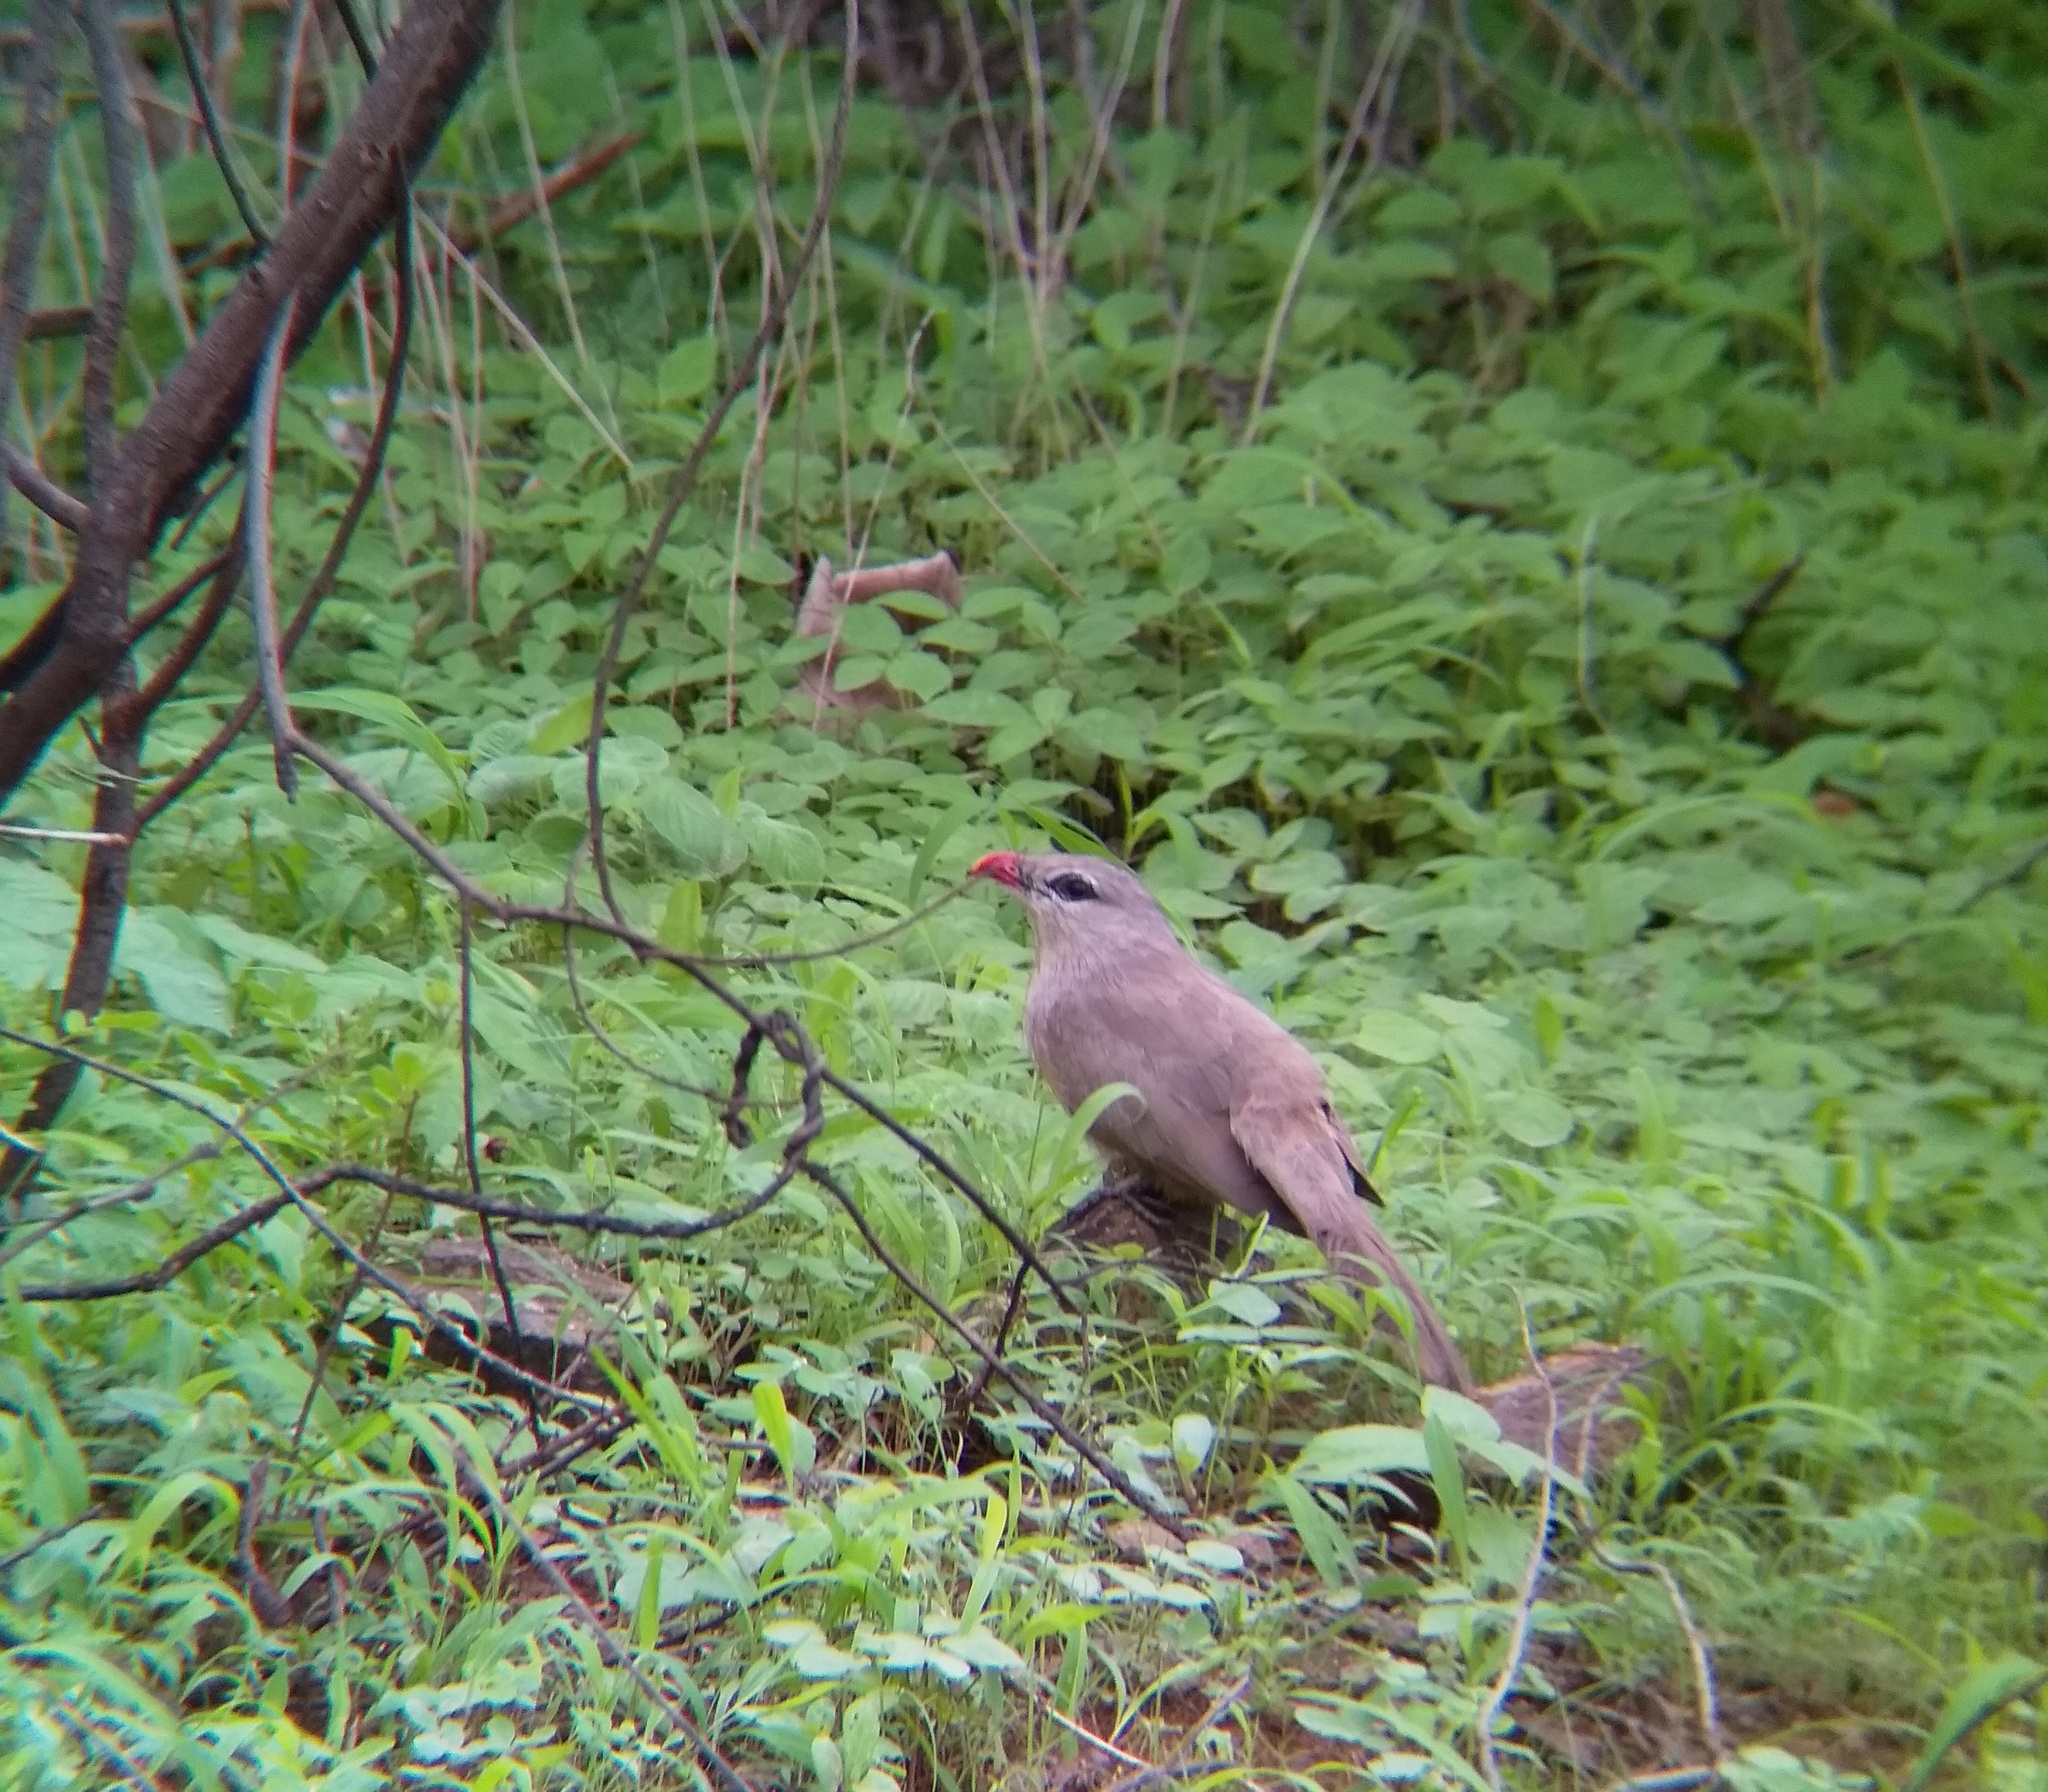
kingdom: Animalia
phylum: Chordata
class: Aves
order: Cuculiformes
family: Cuculidae
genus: Taccocua
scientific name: Taccocua leschenaultii
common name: Sirkeer malkoha
